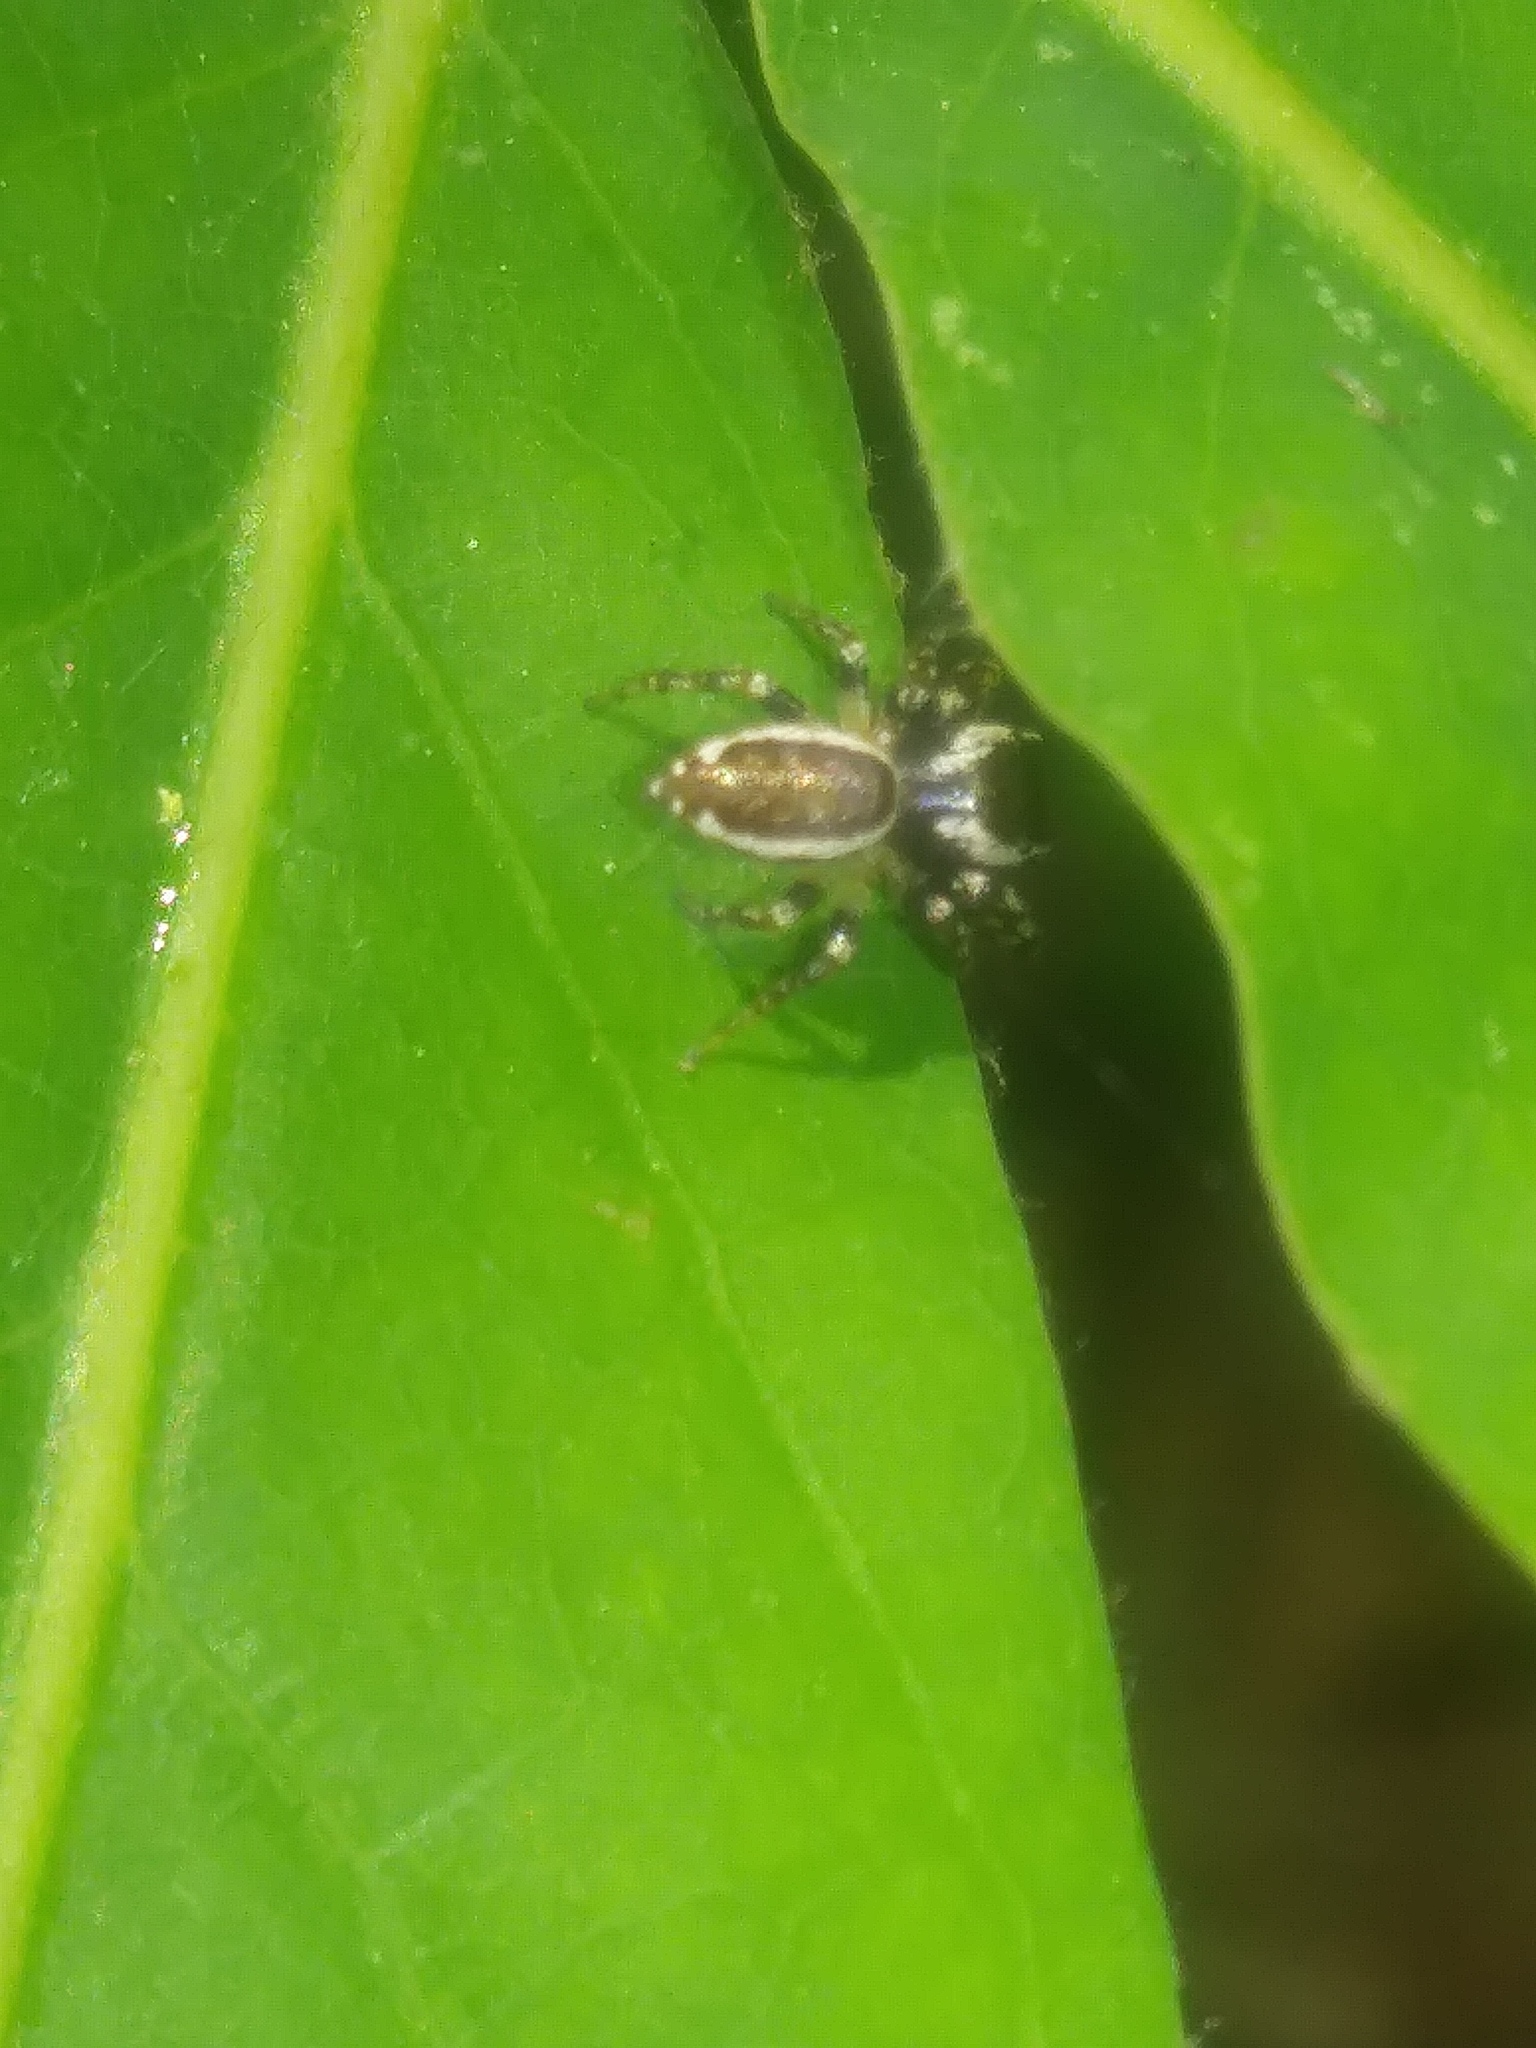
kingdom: Animalia
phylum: Arthropoda
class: Arachnida
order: Araneae
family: Salticidae
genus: Pelegrina
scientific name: Pelegrina proterva
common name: Common white-cheeked jumping spider
